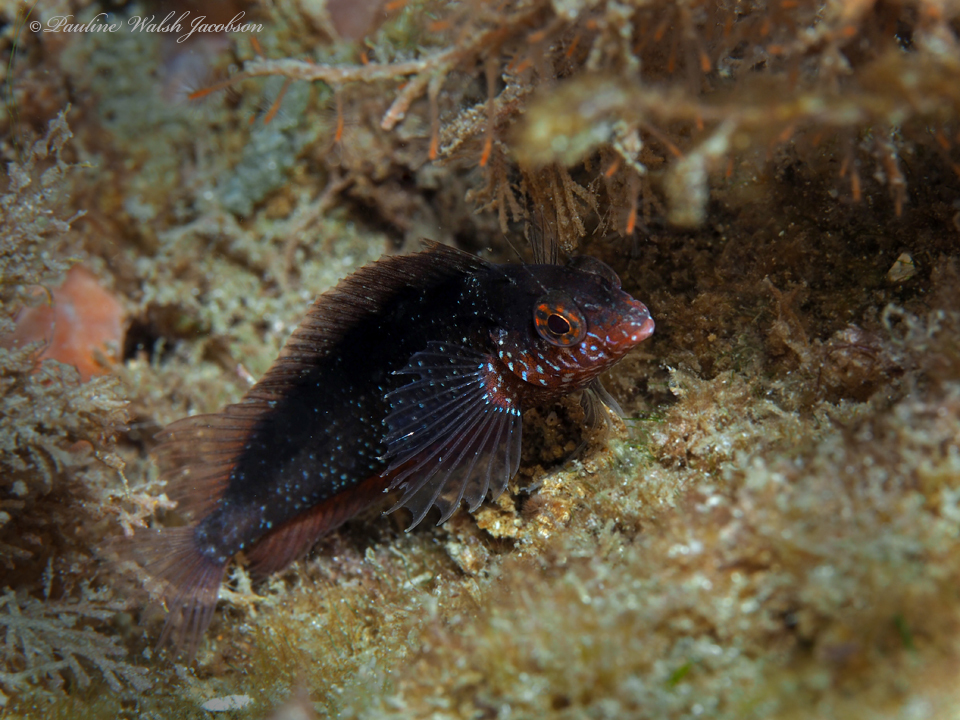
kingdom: Animalia
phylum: Chordata
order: Perciformes
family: Labrisomidae
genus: Malacoctenus
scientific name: Malacoctenus macropus
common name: Rosy blenny
